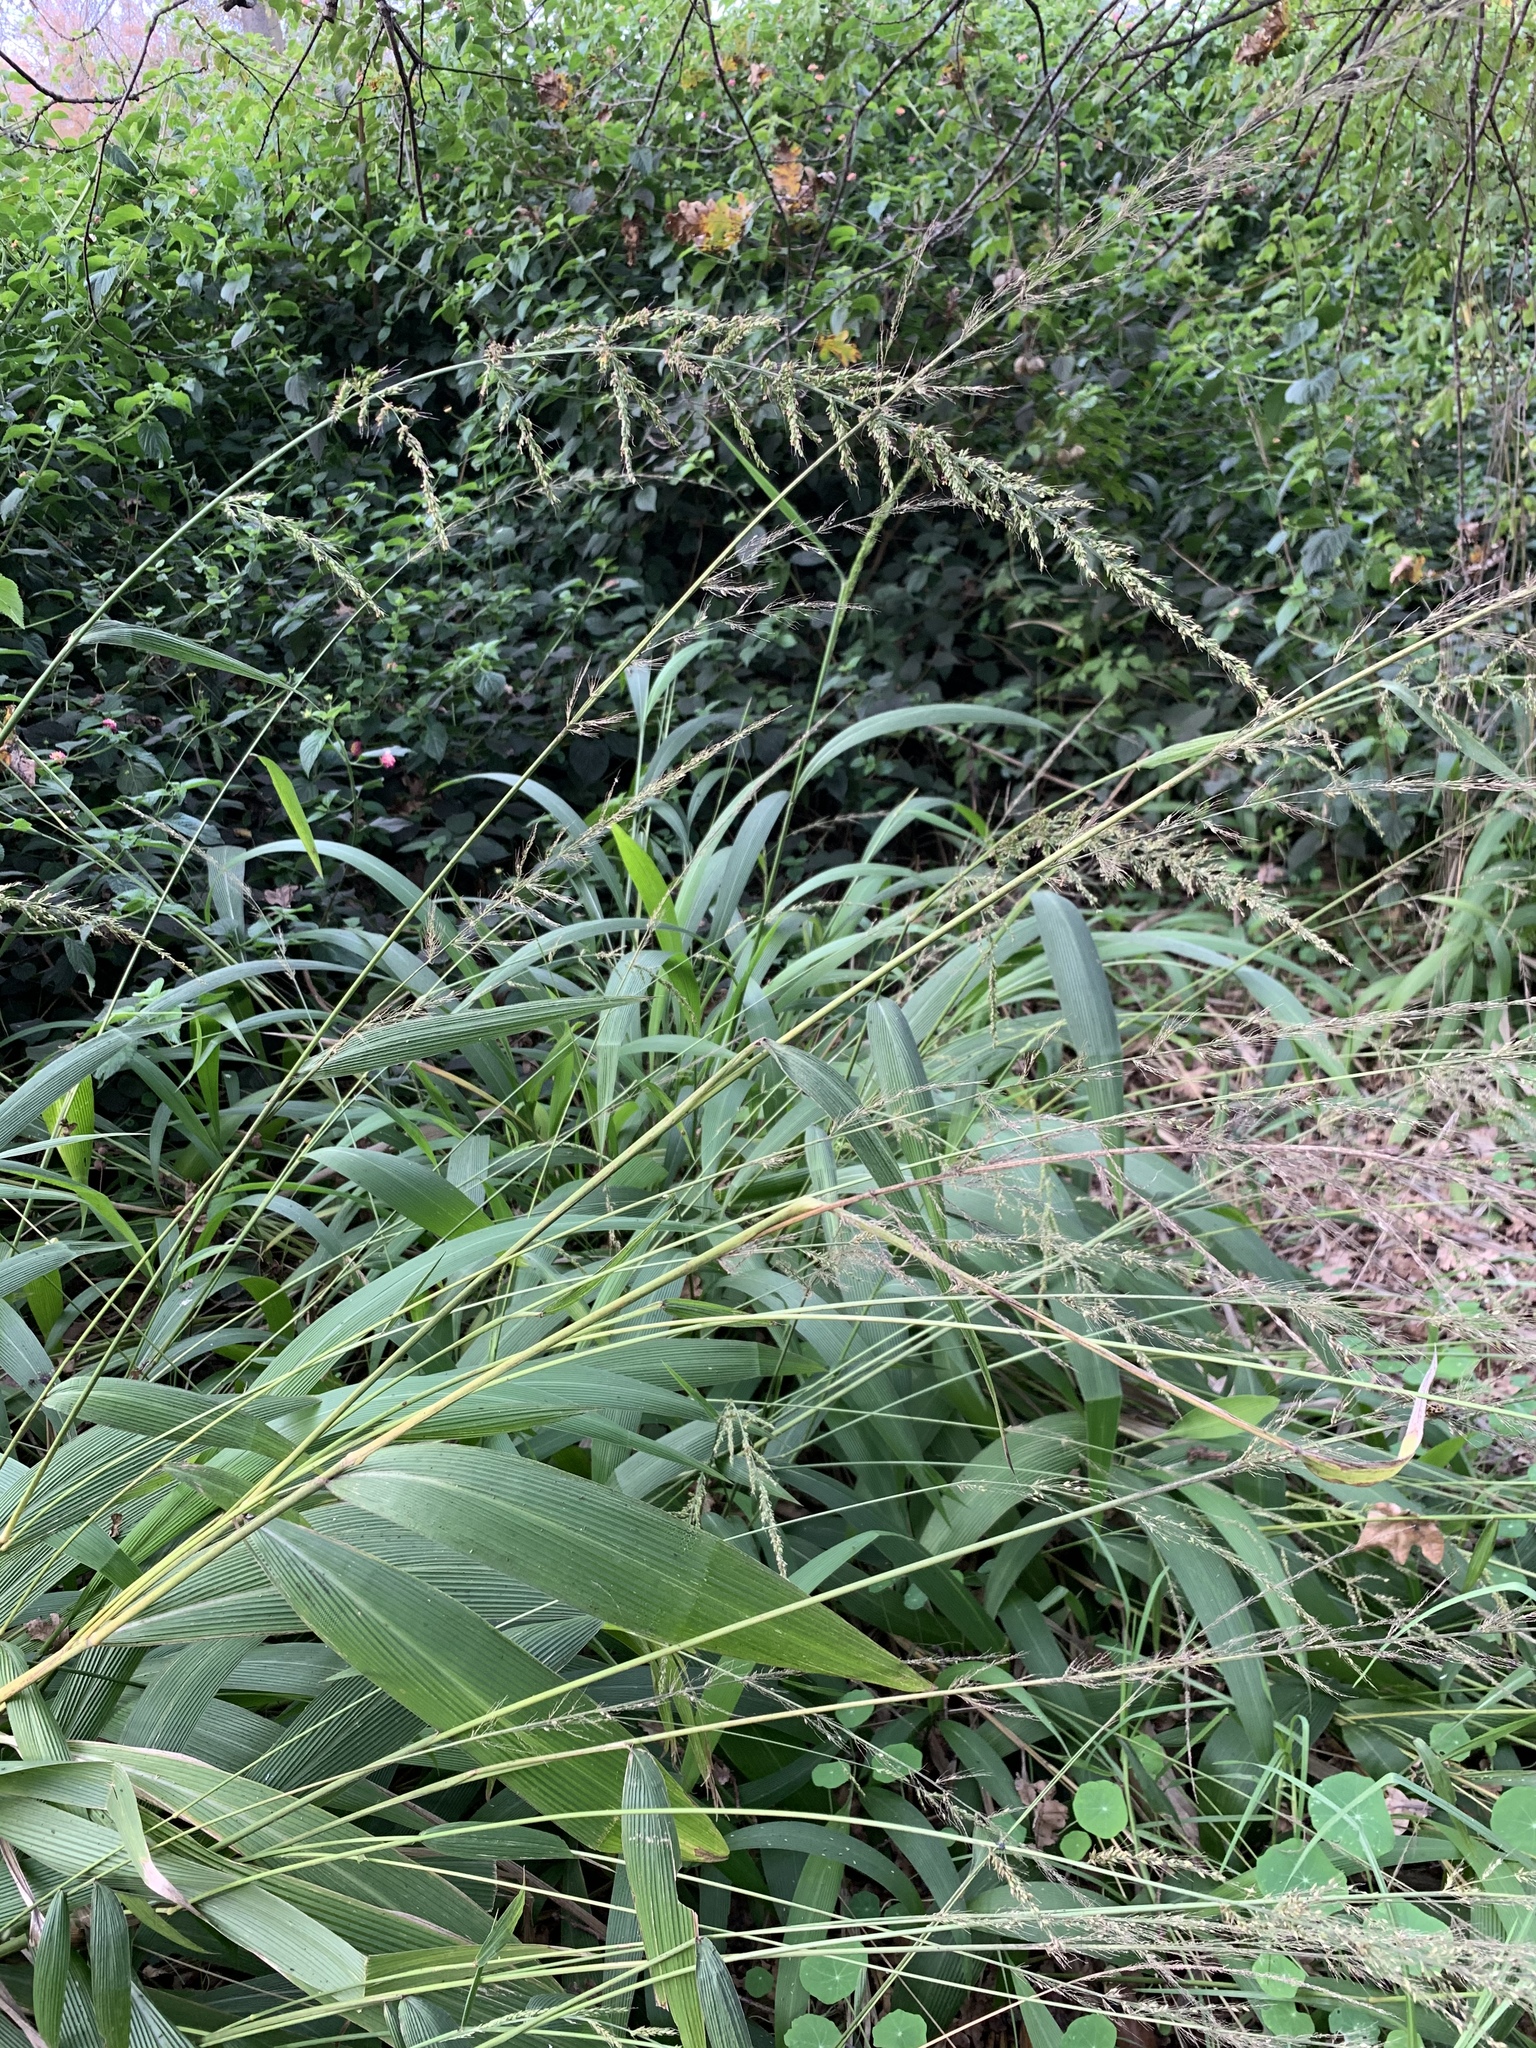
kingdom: Plantae
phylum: Tracheophyta
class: Liliopsida
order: Poales
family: Poaceae
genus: Setaria
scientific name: Setaria megaphylla
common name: Bigleaf bristlegrass
